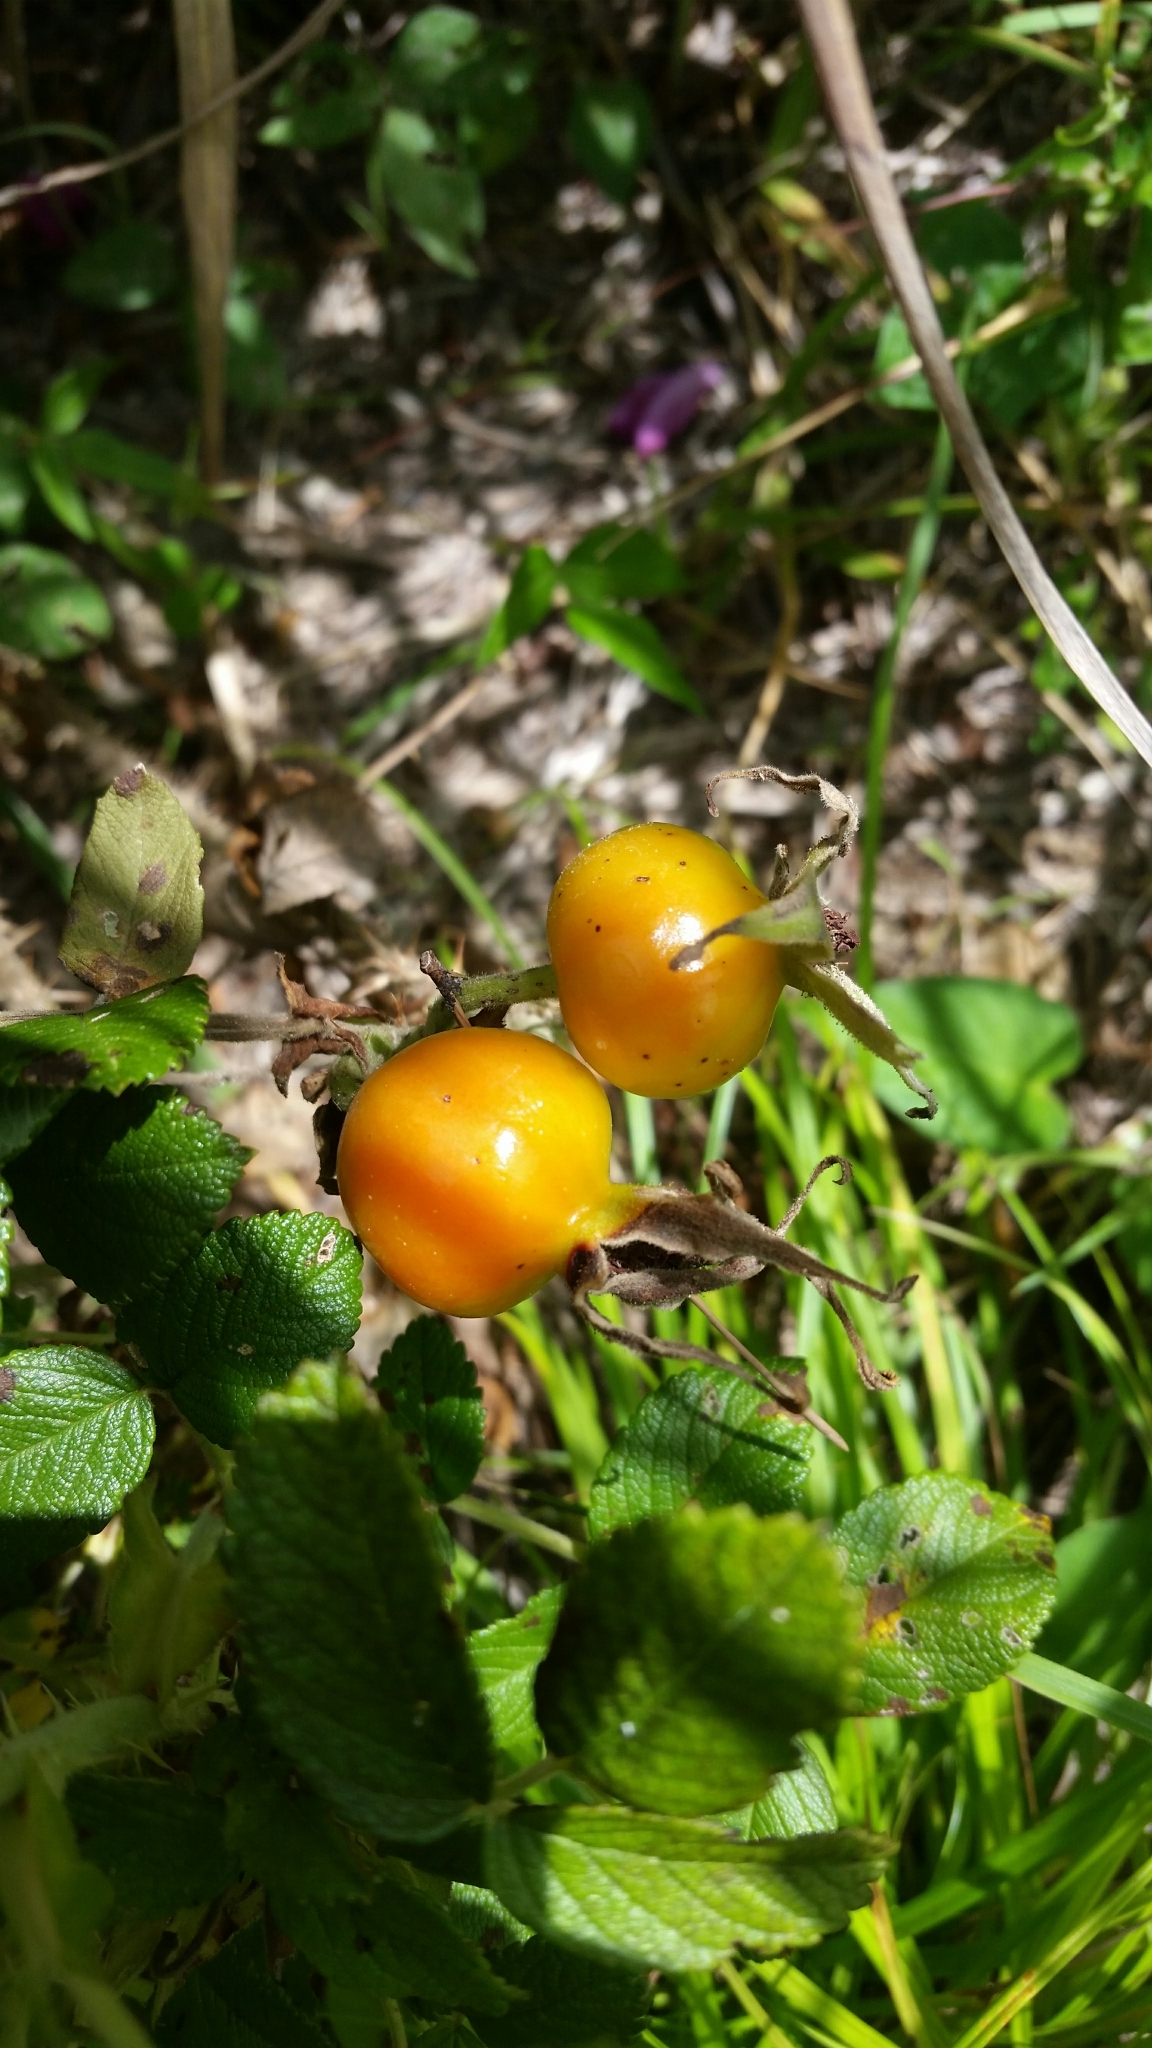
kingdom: Plantae
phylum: Tracheophyta
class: Magnoliopsida
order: Rosales
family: Rosaceae
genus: Rosa
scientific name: Rosa rugosa
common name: Japanese rose
